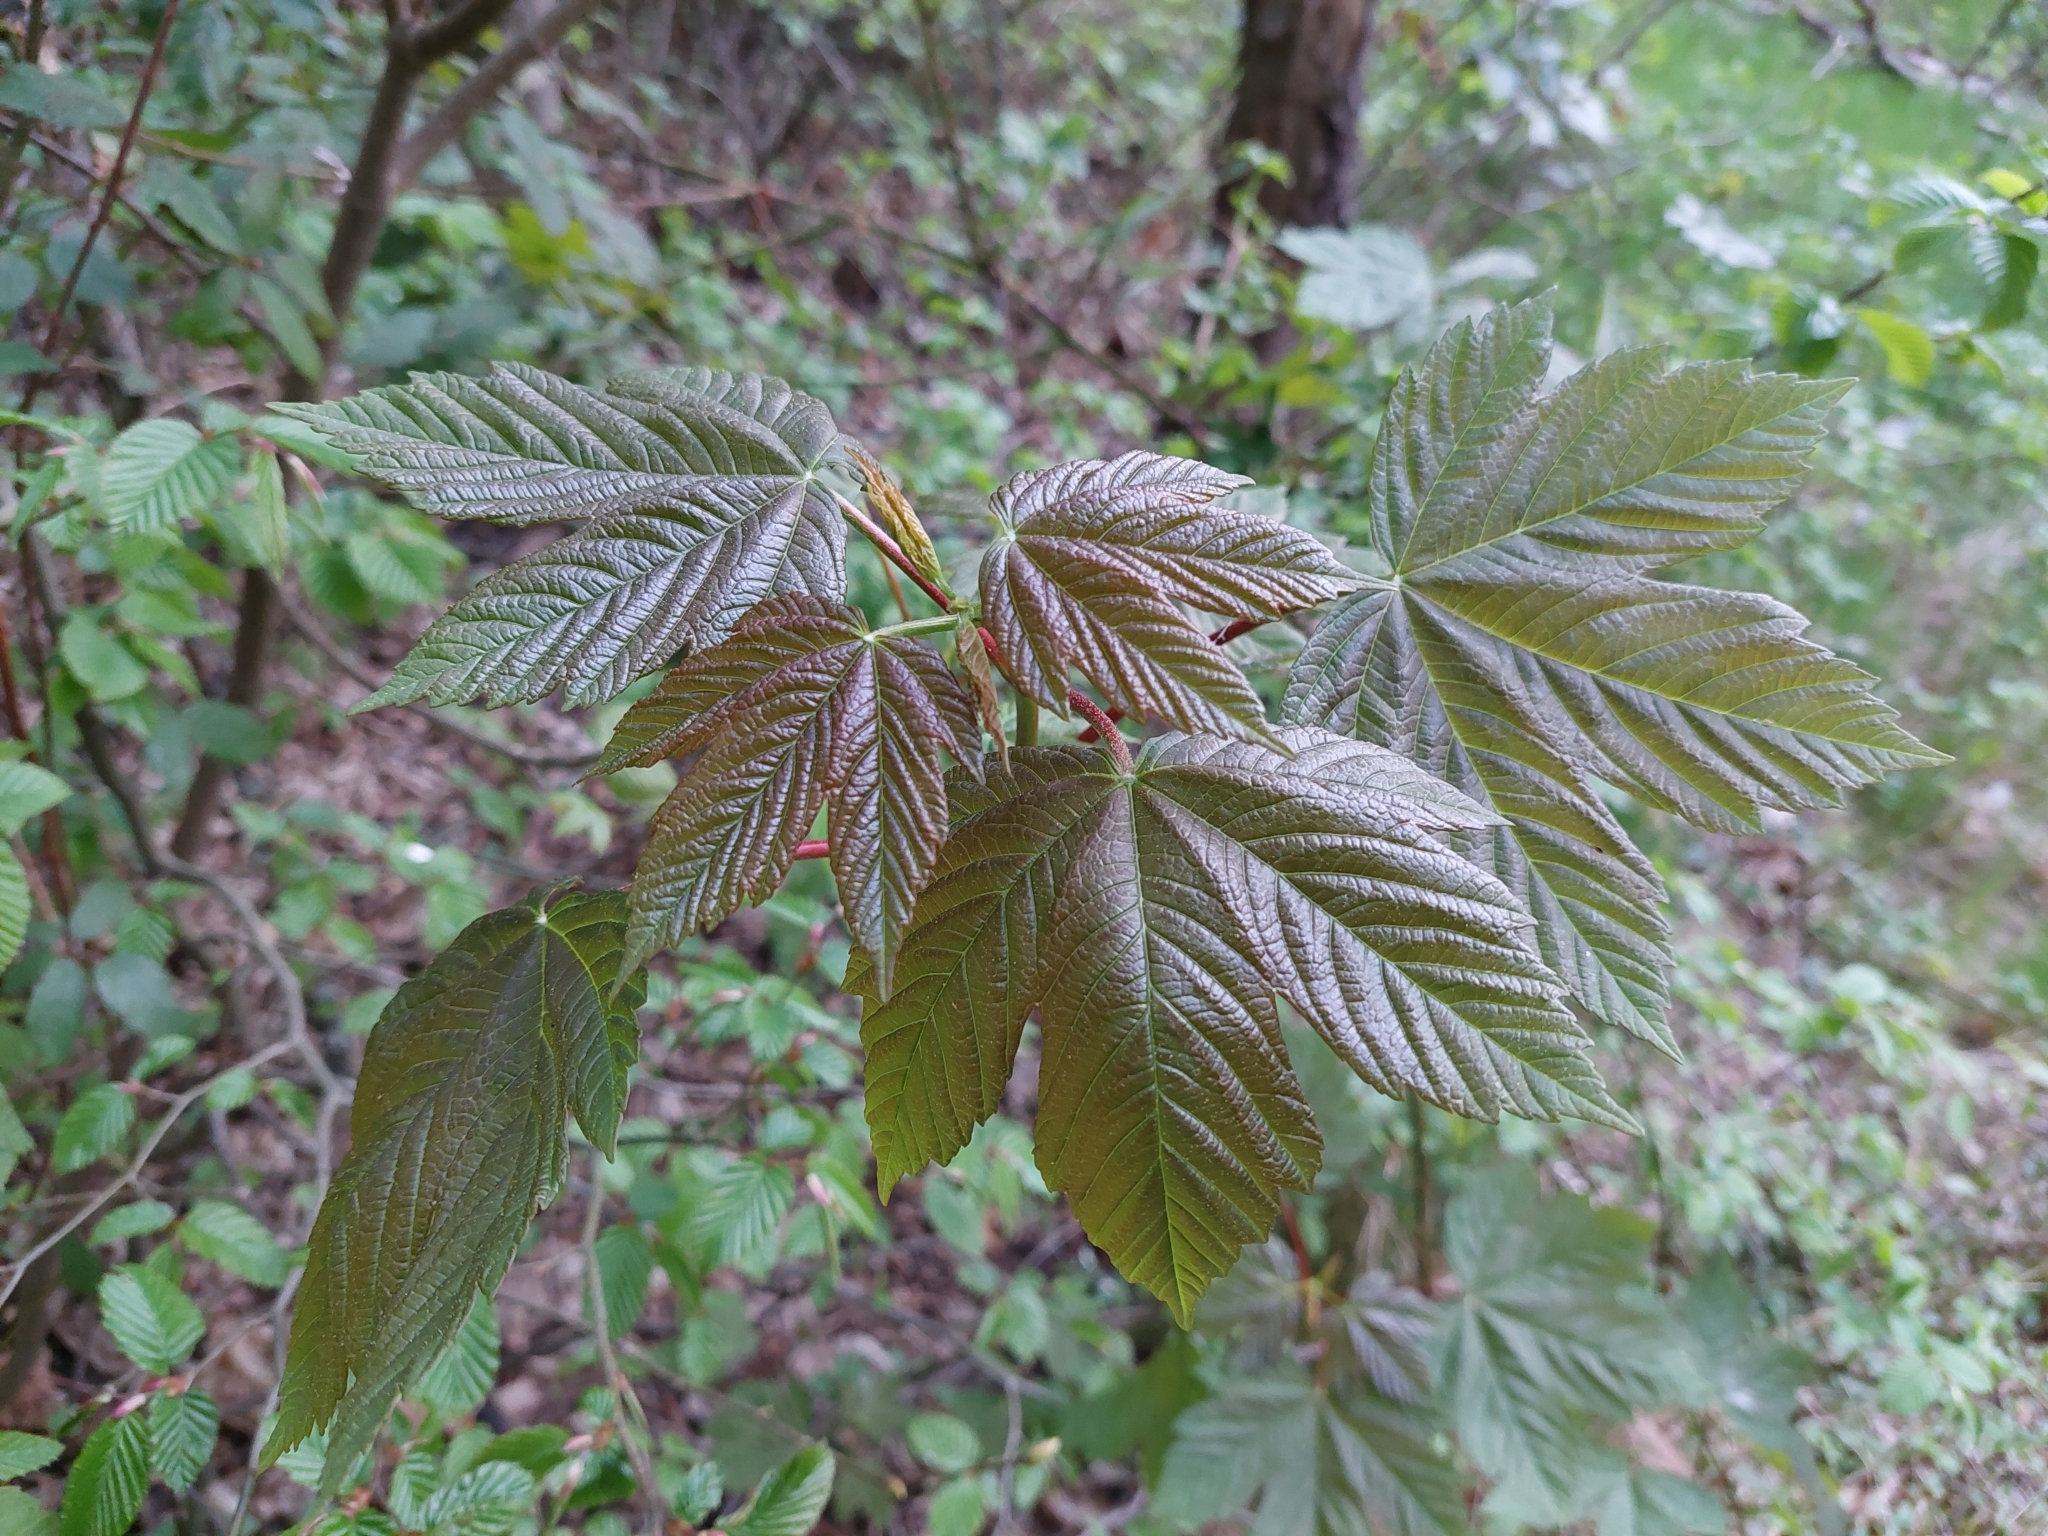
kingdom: Plantae
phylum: Tracheophyta
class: Magnoliopsida
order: Sapindales
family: Sapindaceae
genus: Acer
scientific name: Acer pseudoplatanus
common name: Sycamore
